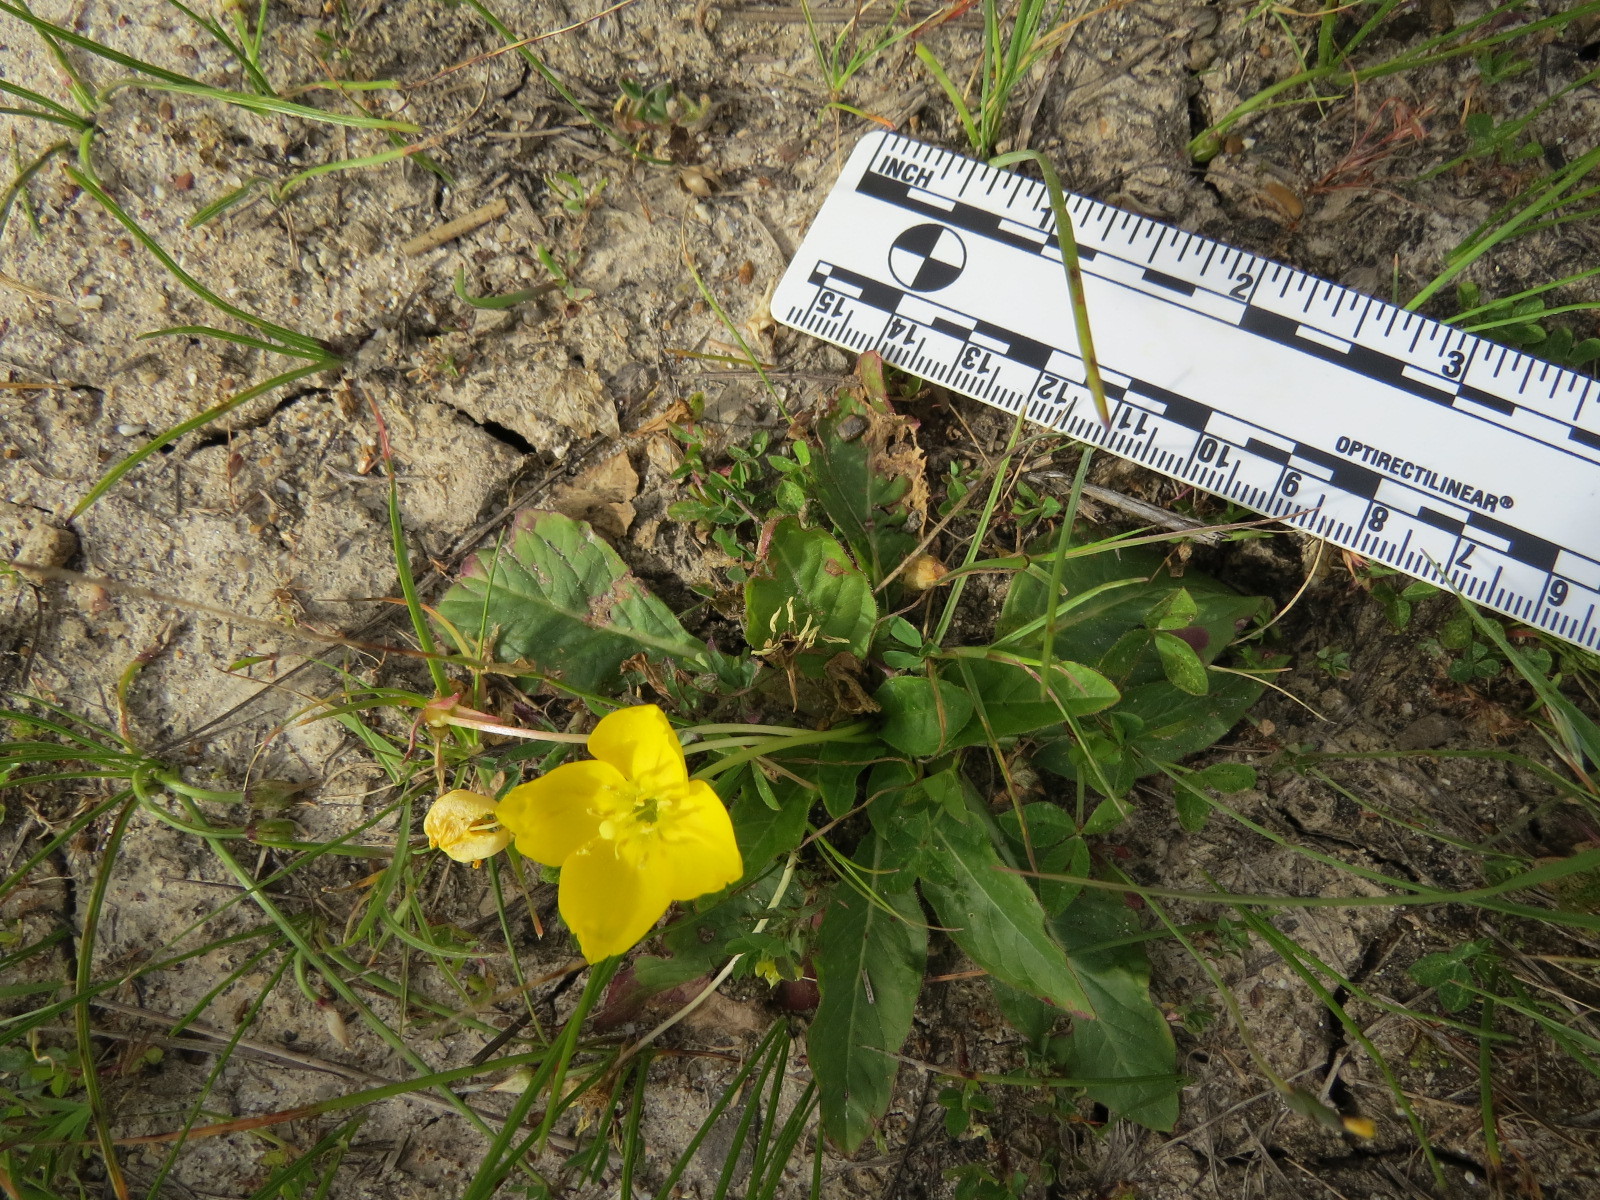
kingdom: Plantae
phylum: Tracheophyta
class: Magnoliopsida
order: Myrtales
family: Onagraceae
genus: Taraxia
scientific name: Taraxia ovata
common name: Goldeneggs
